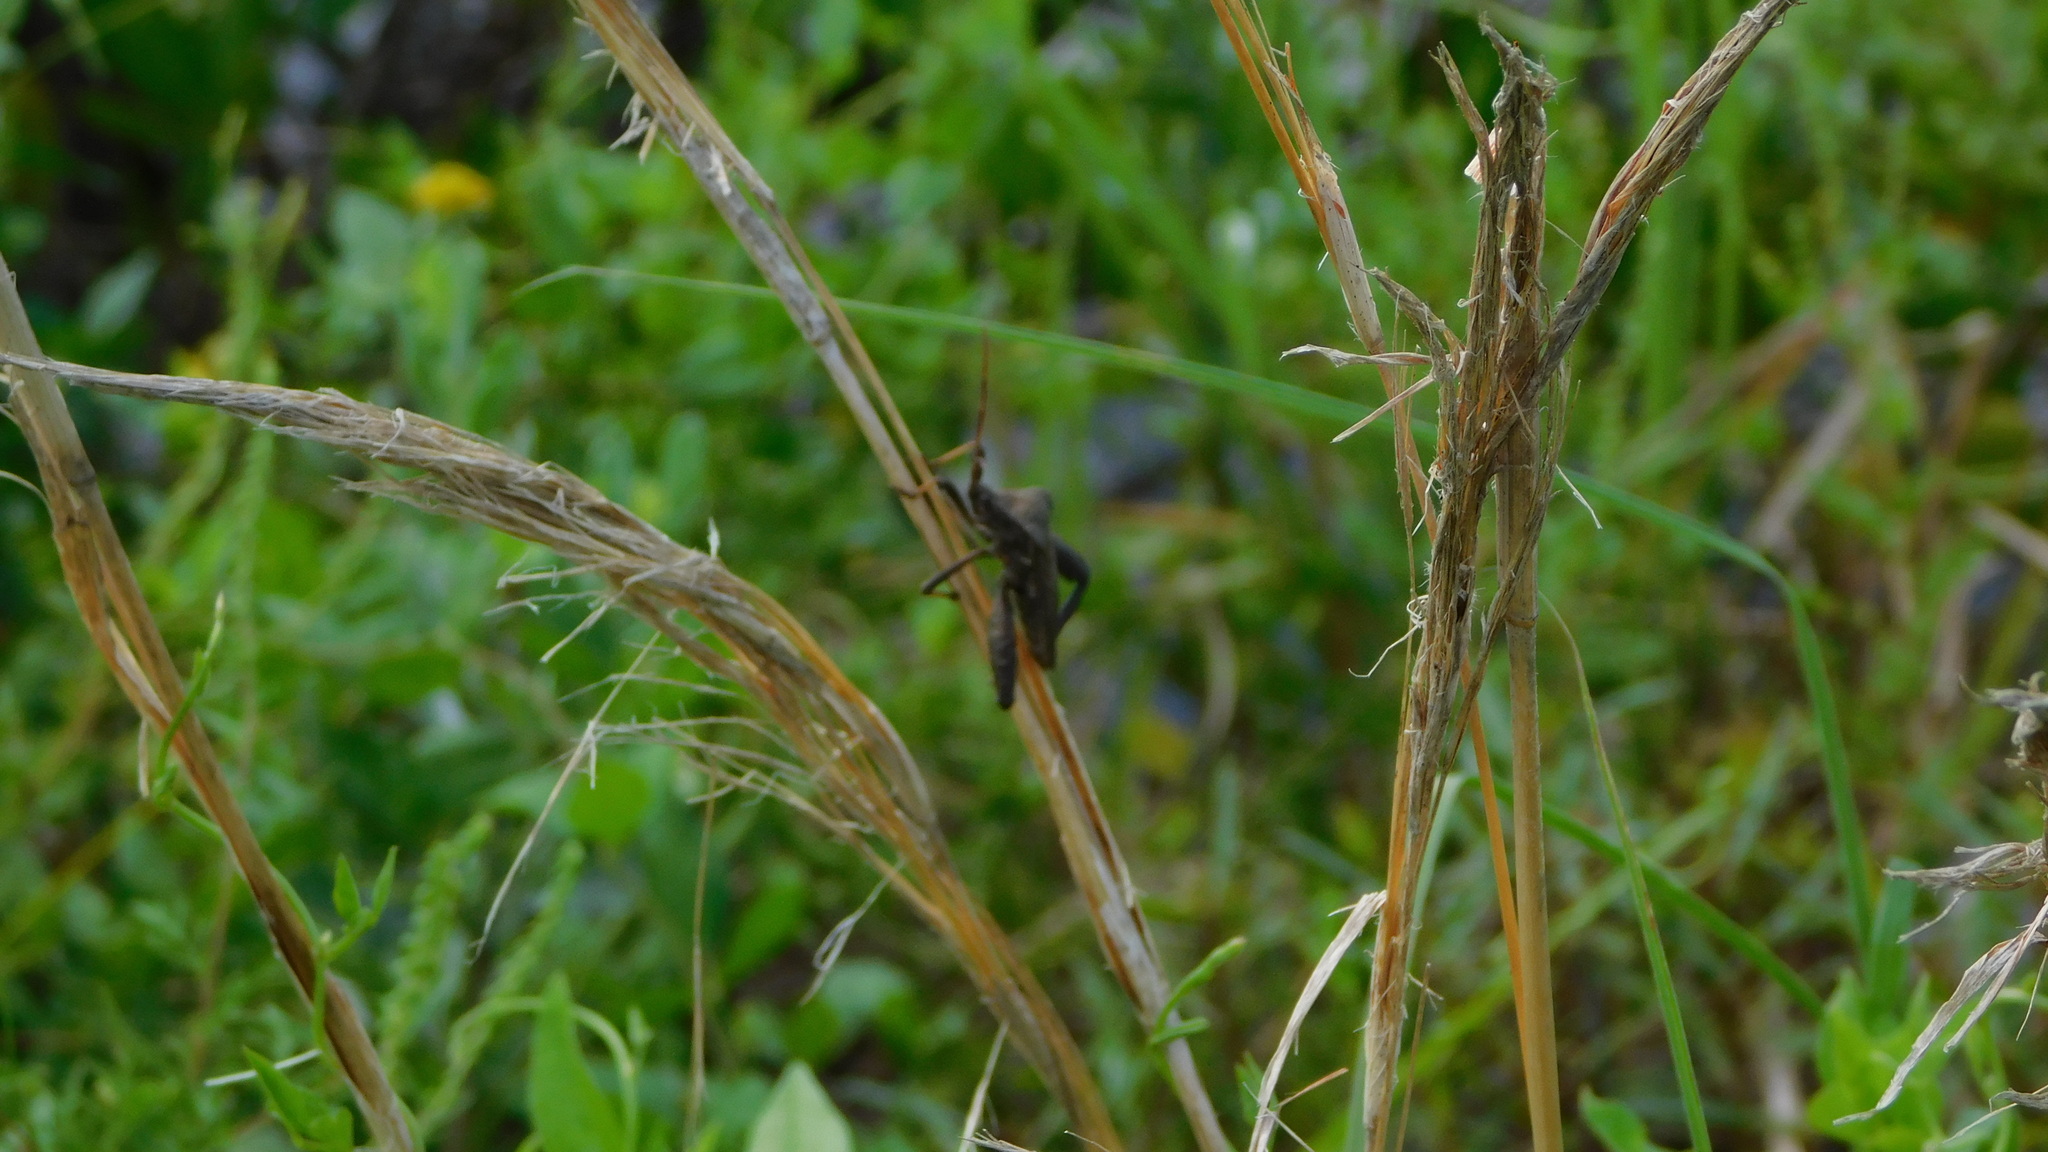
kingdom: Animalia
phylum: Arthropoda
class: Insecta
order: Hemiptera
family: Coreidae
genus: Acanthocephala
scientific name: Acanthocephala femorata
